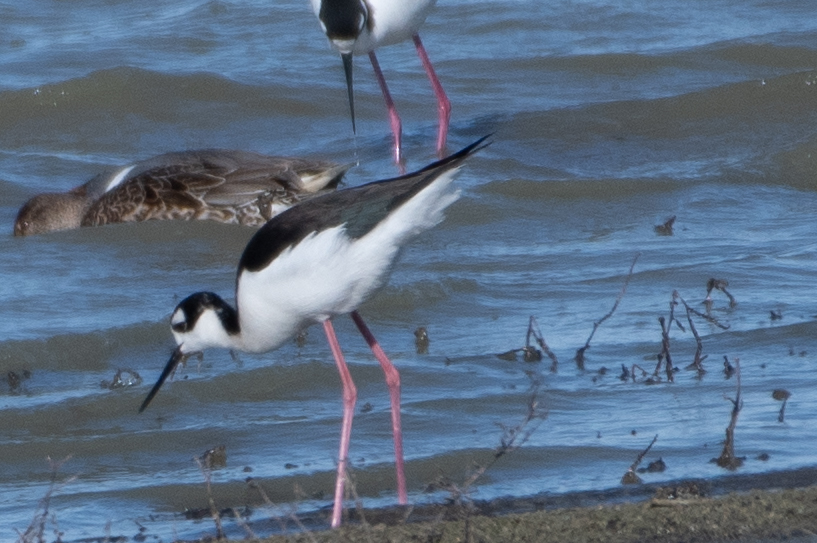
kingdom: Animalia
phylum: Chordata
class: Aves
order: Charadriiformes
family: Recurvirostridae
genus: Himantopus
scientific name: Himantopus mexicanus
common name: Black-necked stilt
